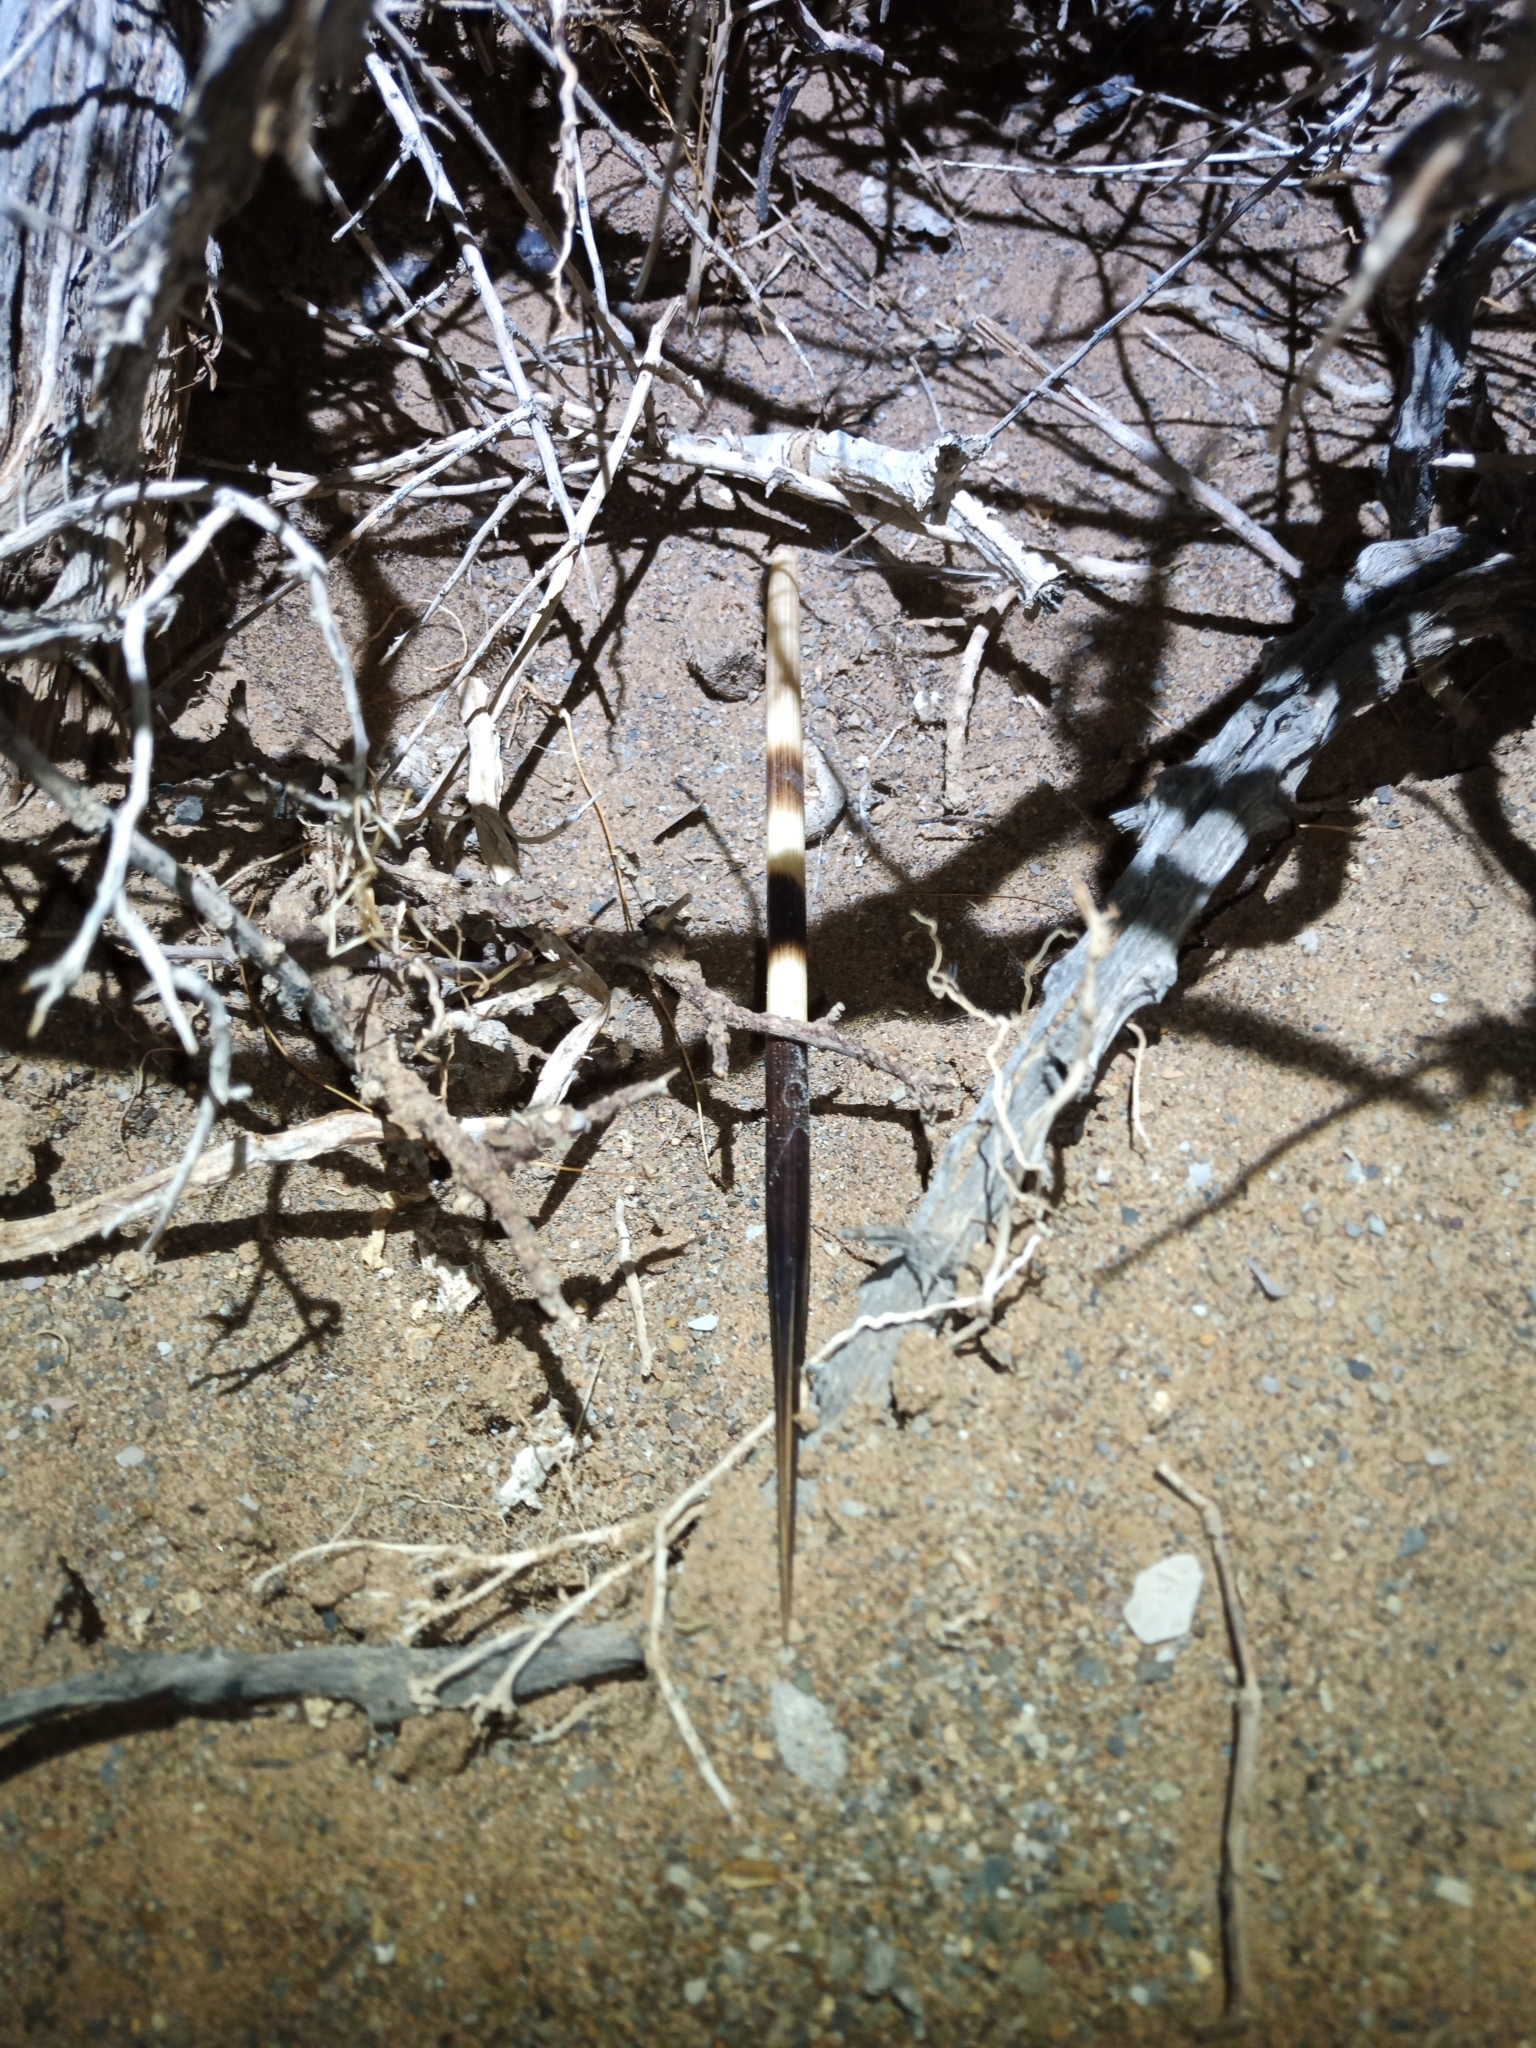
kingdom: Animalia
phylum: Chordata
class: Mammalia
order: Rodentia
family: Hystricidae
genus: Hystrix
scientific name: Hystrix africaeaustralis
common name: Cape porcupine
